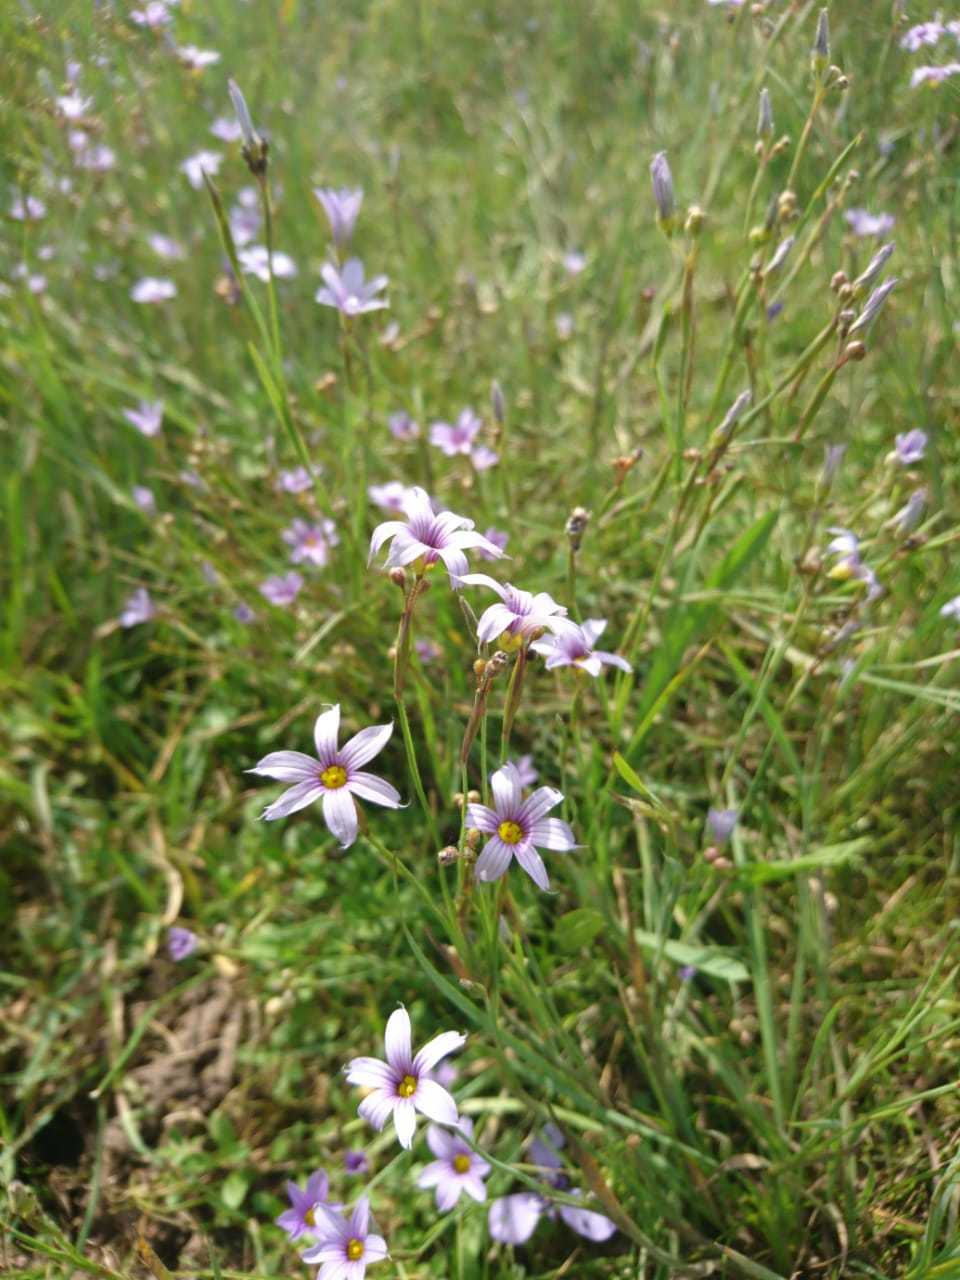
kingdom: Plantae
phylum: Tracheophyta
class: Liliopsida
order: Asparagales
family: Iridaceae
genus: Sisyrinchium
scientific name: Sisyrinchium platense
